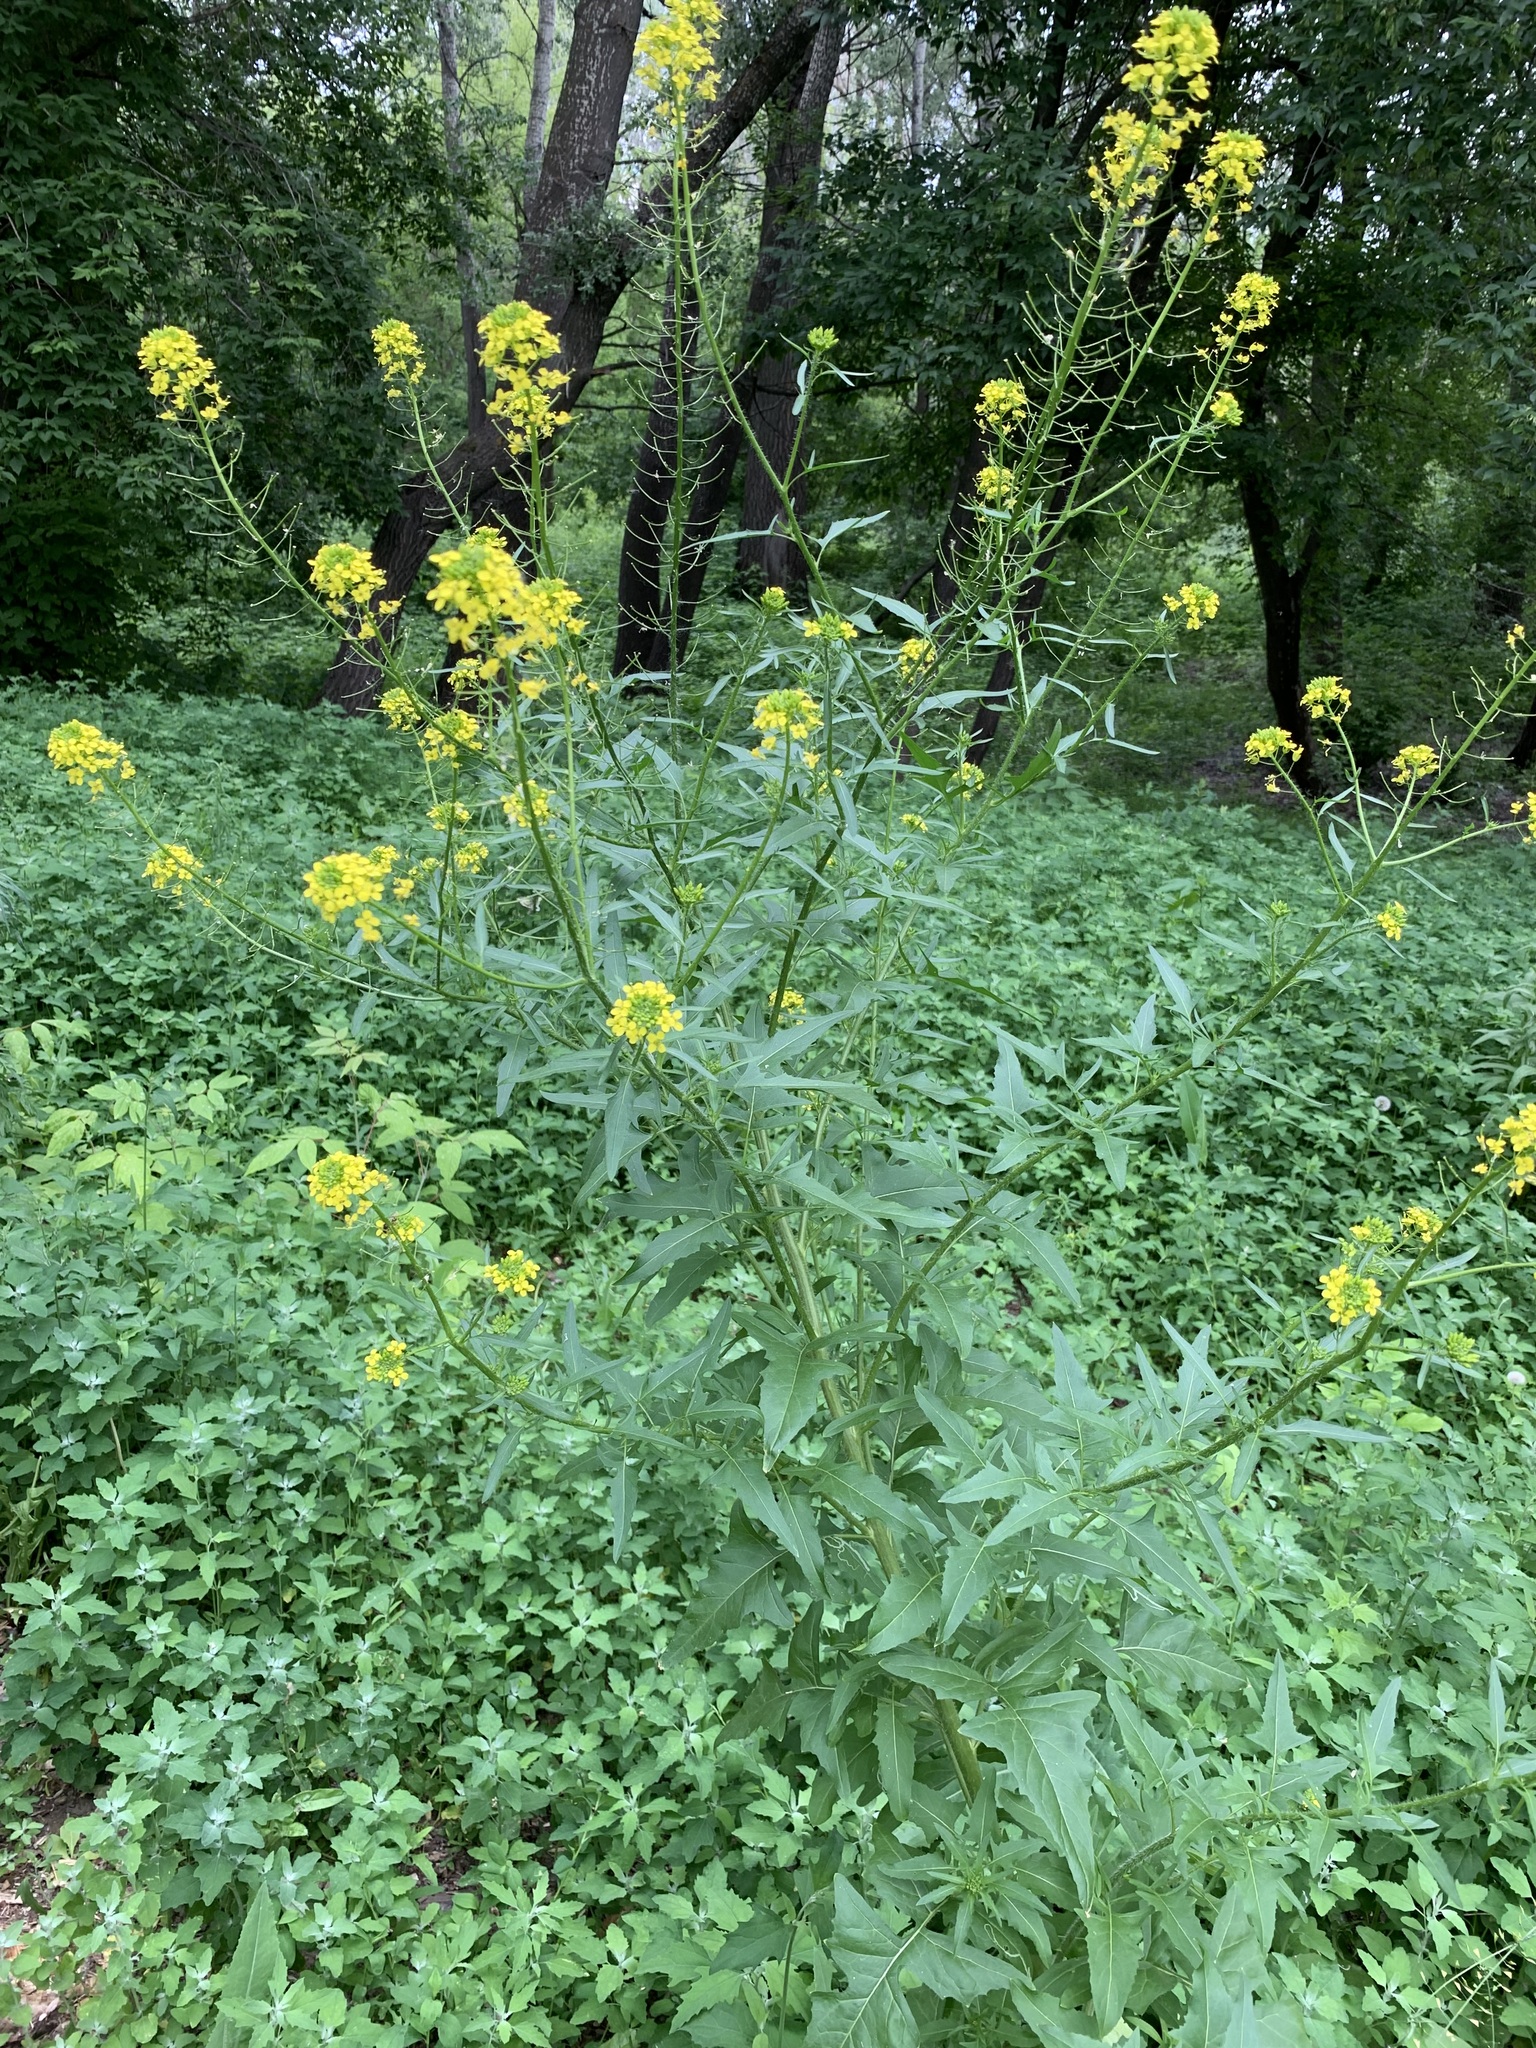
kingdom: Plantae
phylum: Tracheophyta
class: Magnoliopsida
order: Brassicales
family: Brassicaceae
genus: Sisymbrium
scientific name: Sisymbrium loeselii
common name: False london-rocket
